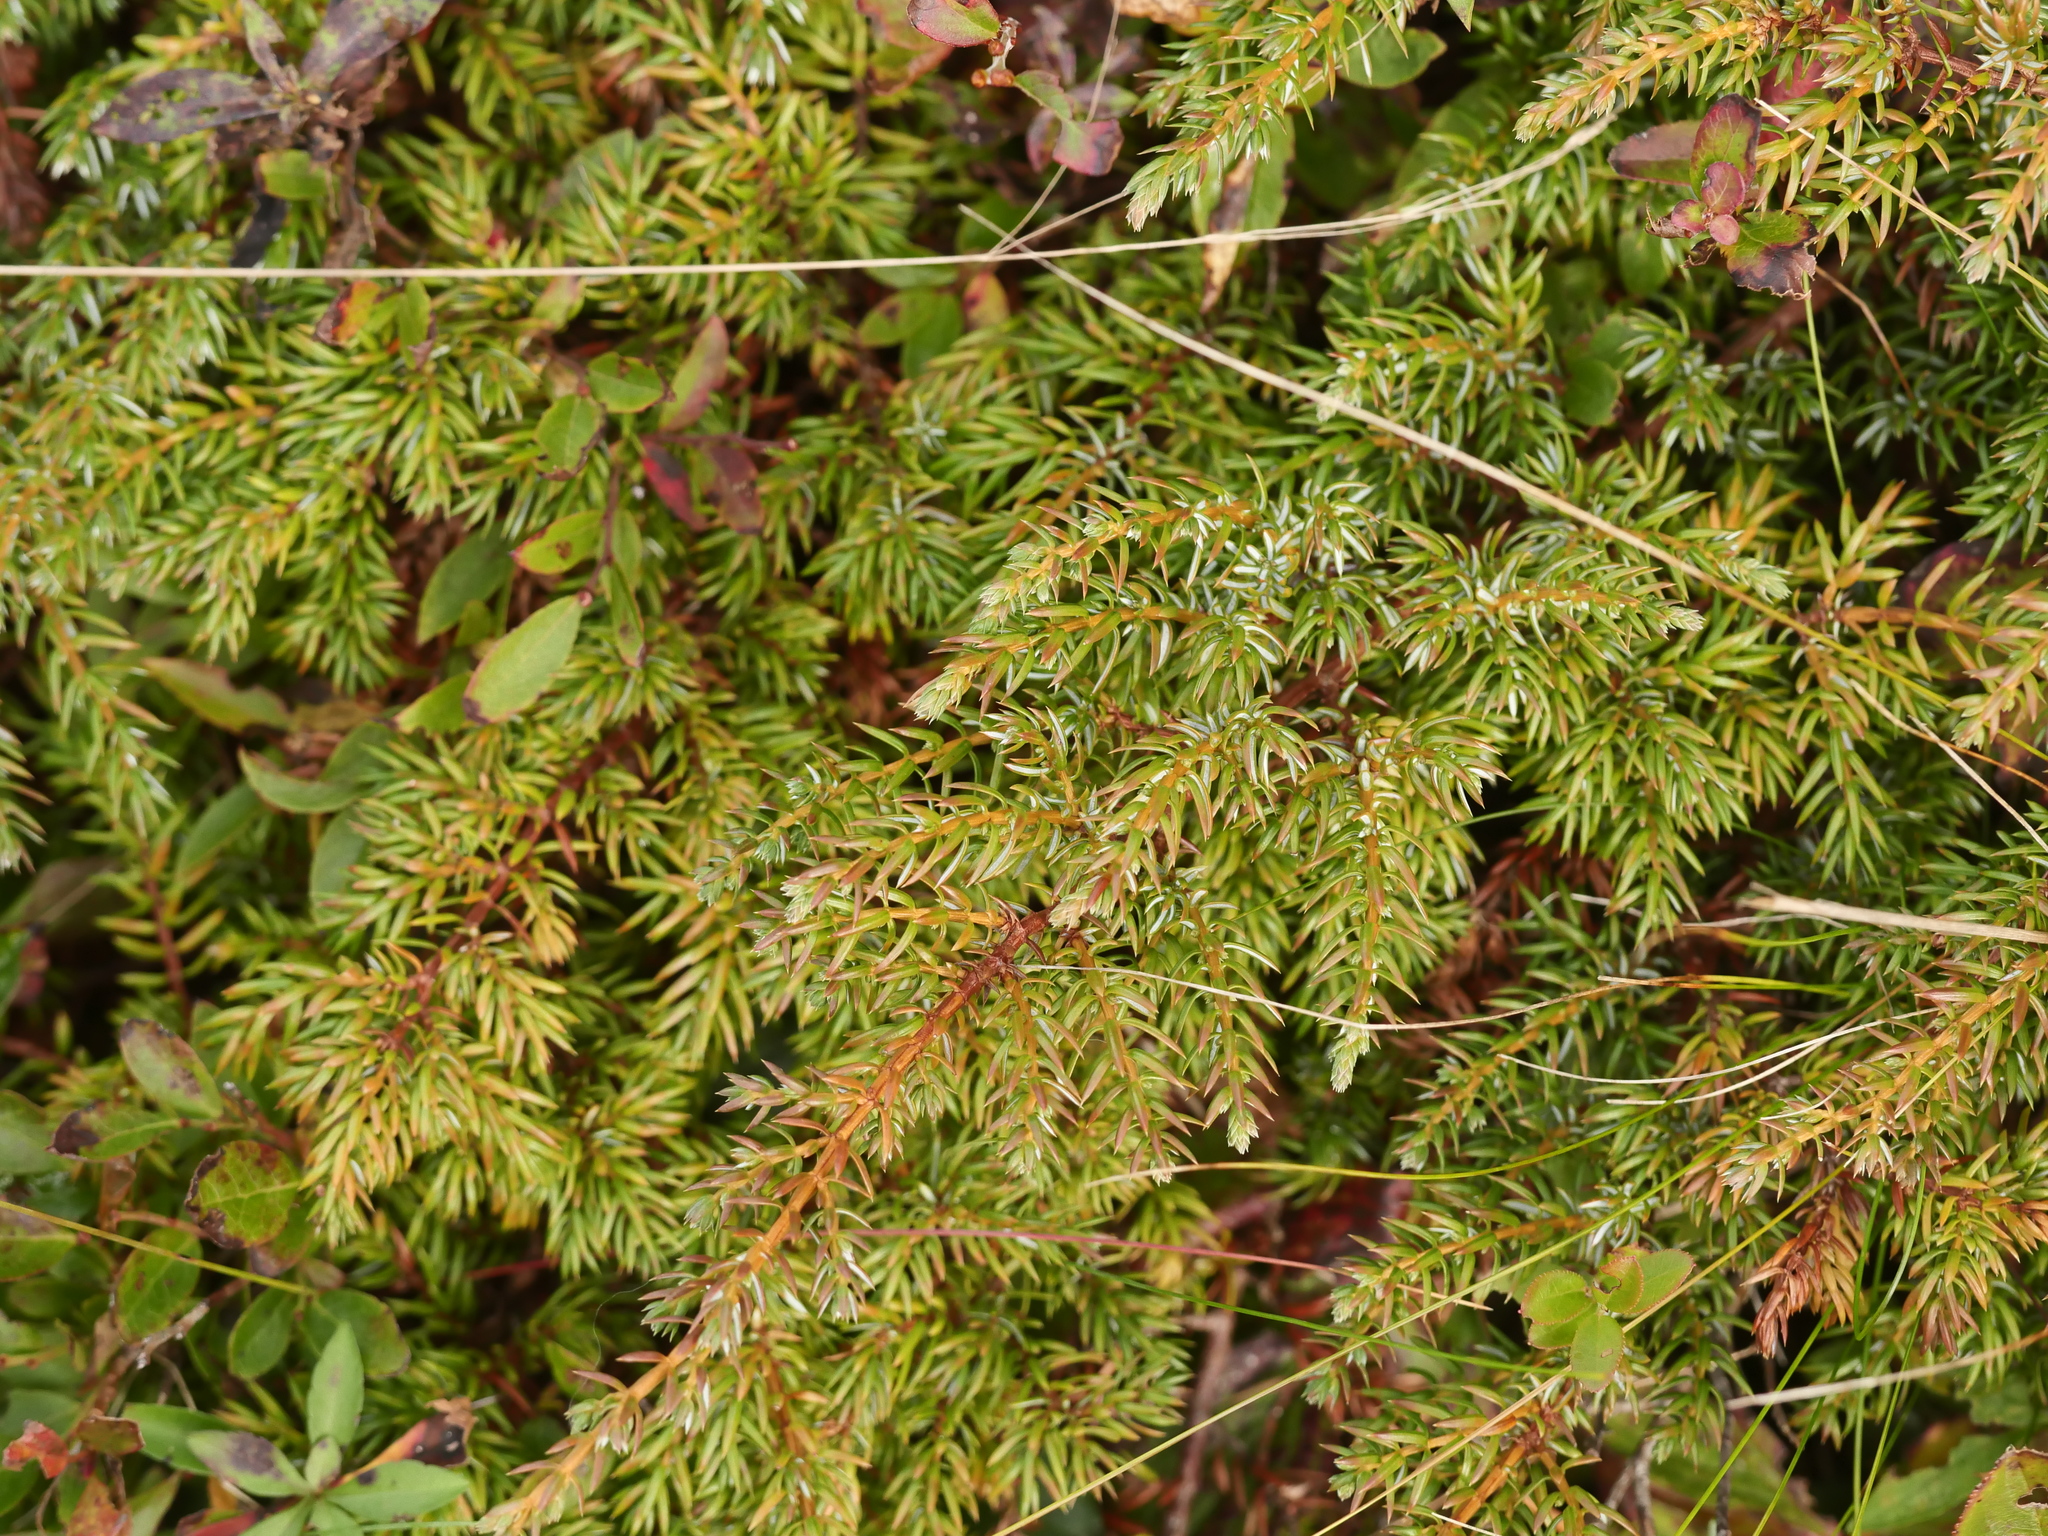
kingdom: Plantae
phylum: Tracheophyta
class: Pinopsida
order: Pinales
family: Cupressaceae
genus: Juniperus
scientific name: Juniperus communis
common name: Common juniper
